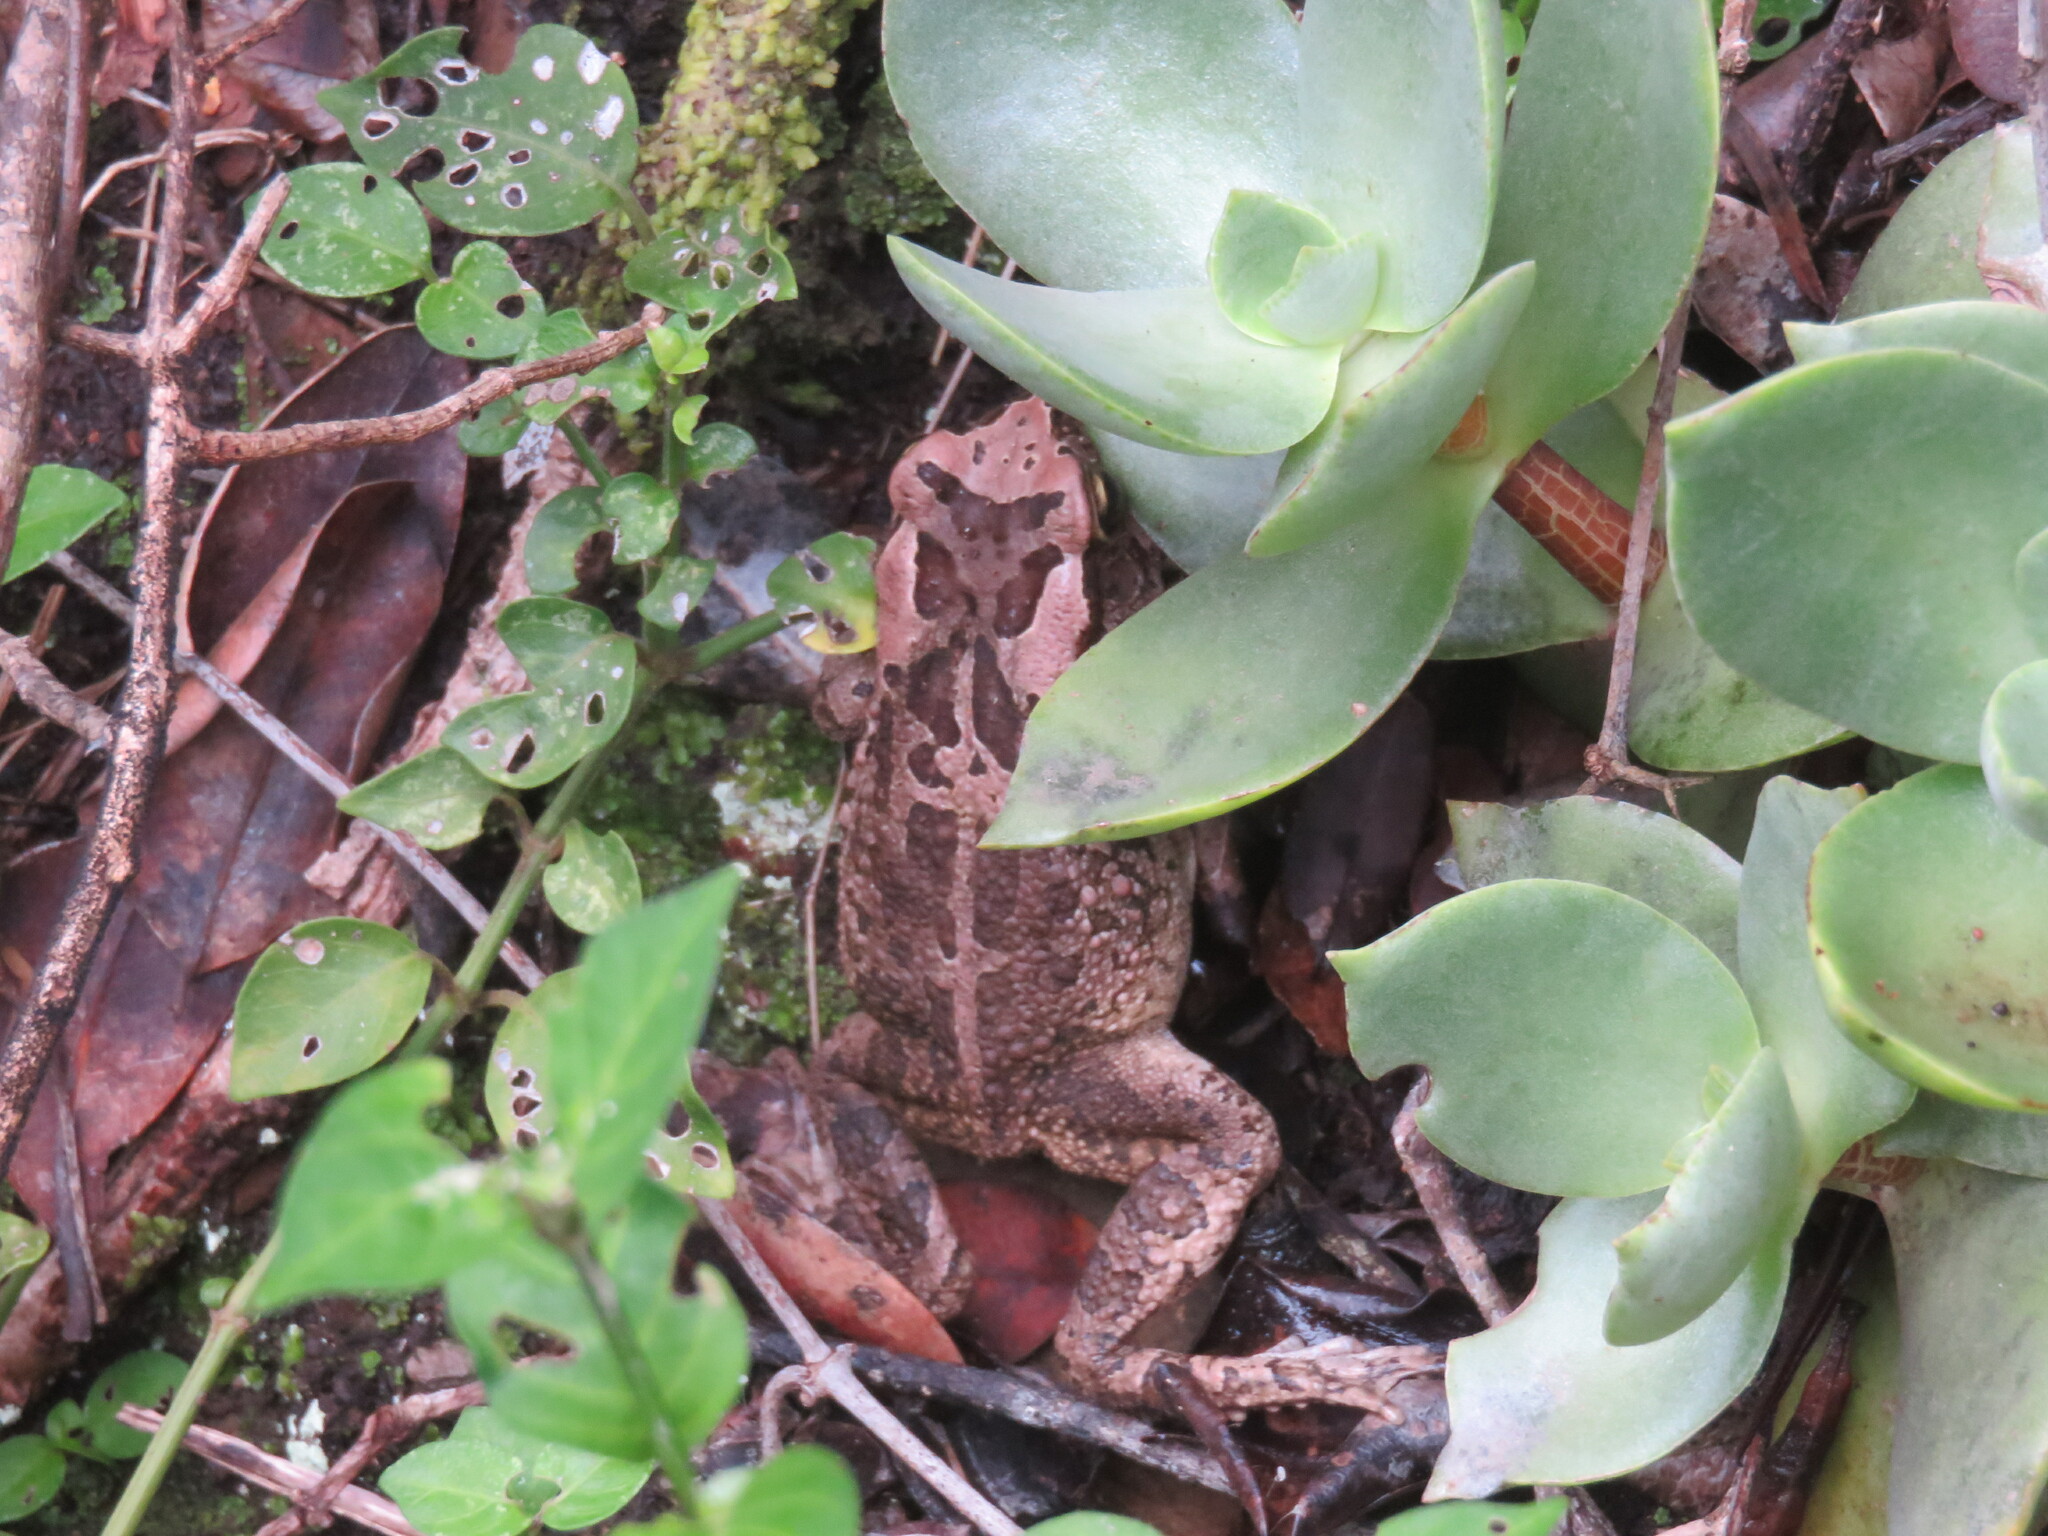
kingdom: Animalia
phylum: Chordata
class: Amphibia
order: Anura
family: Bufonidae
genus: Sclerophrys
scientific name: Sclerophrys capensis
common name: Ranger’s toad
